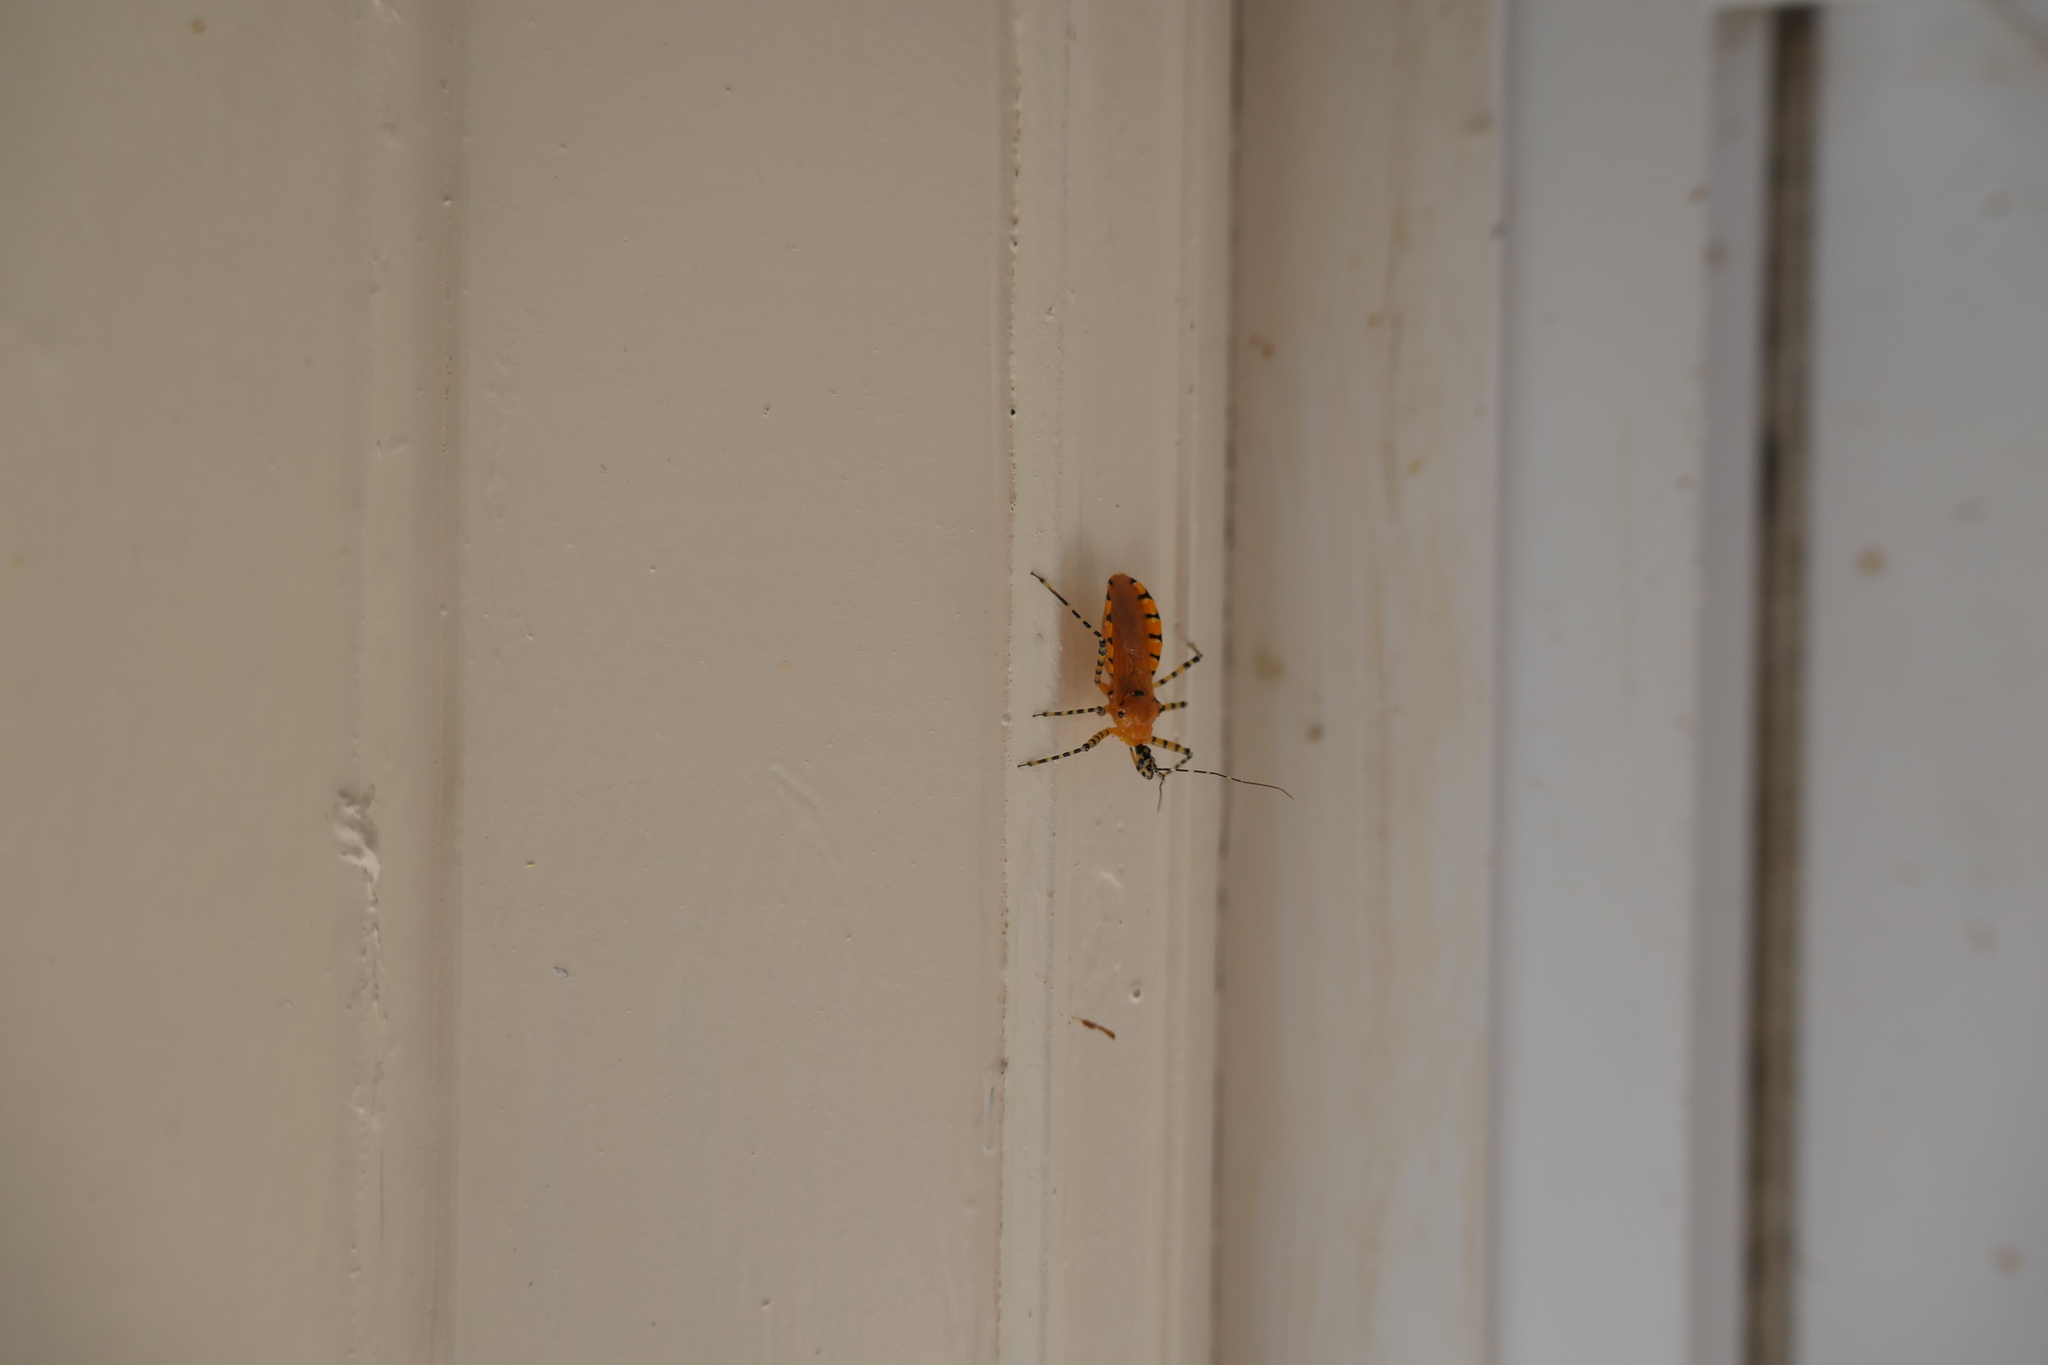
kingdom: Animalia
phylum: Arthropoda
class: Insecta
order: Hemiptera
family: Reduviidae
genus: Pselliopus
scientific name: Pselliopus barberi
